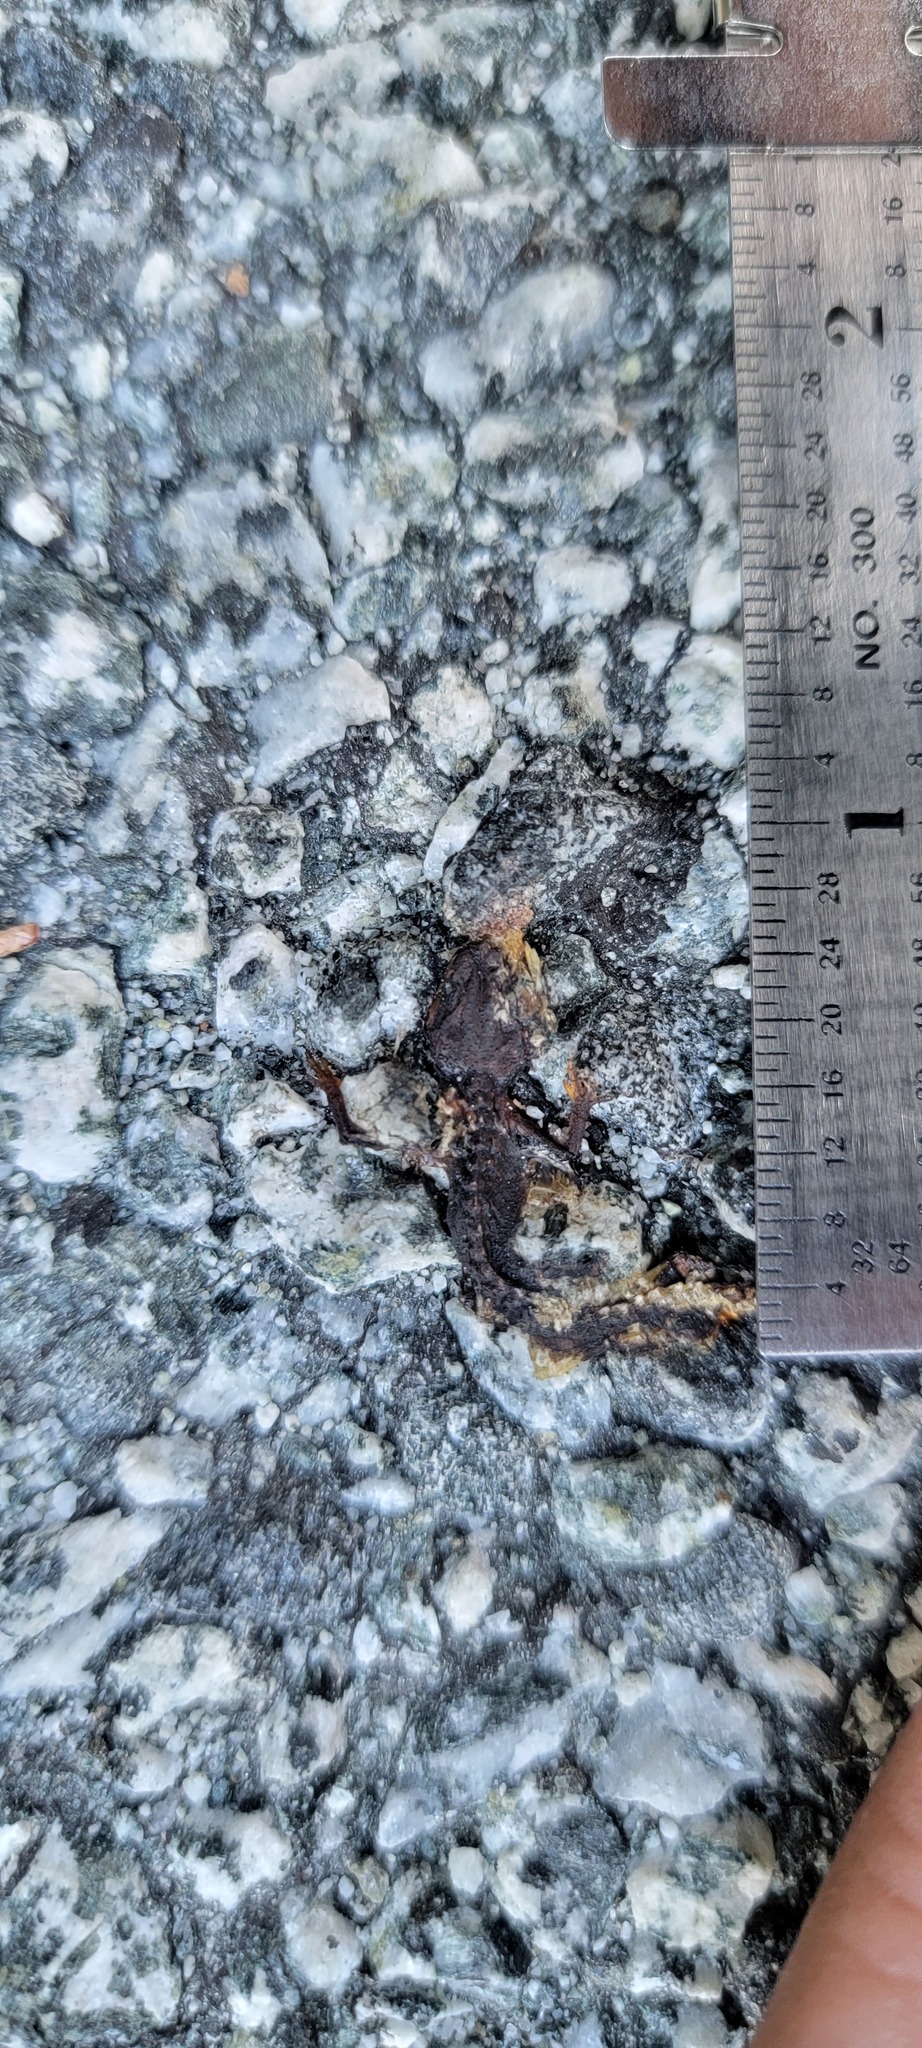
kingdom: Animalia
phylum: Chordata
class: Amphibia
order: Caudata
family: Salamandridae
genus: Taricha
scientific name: Taricha
